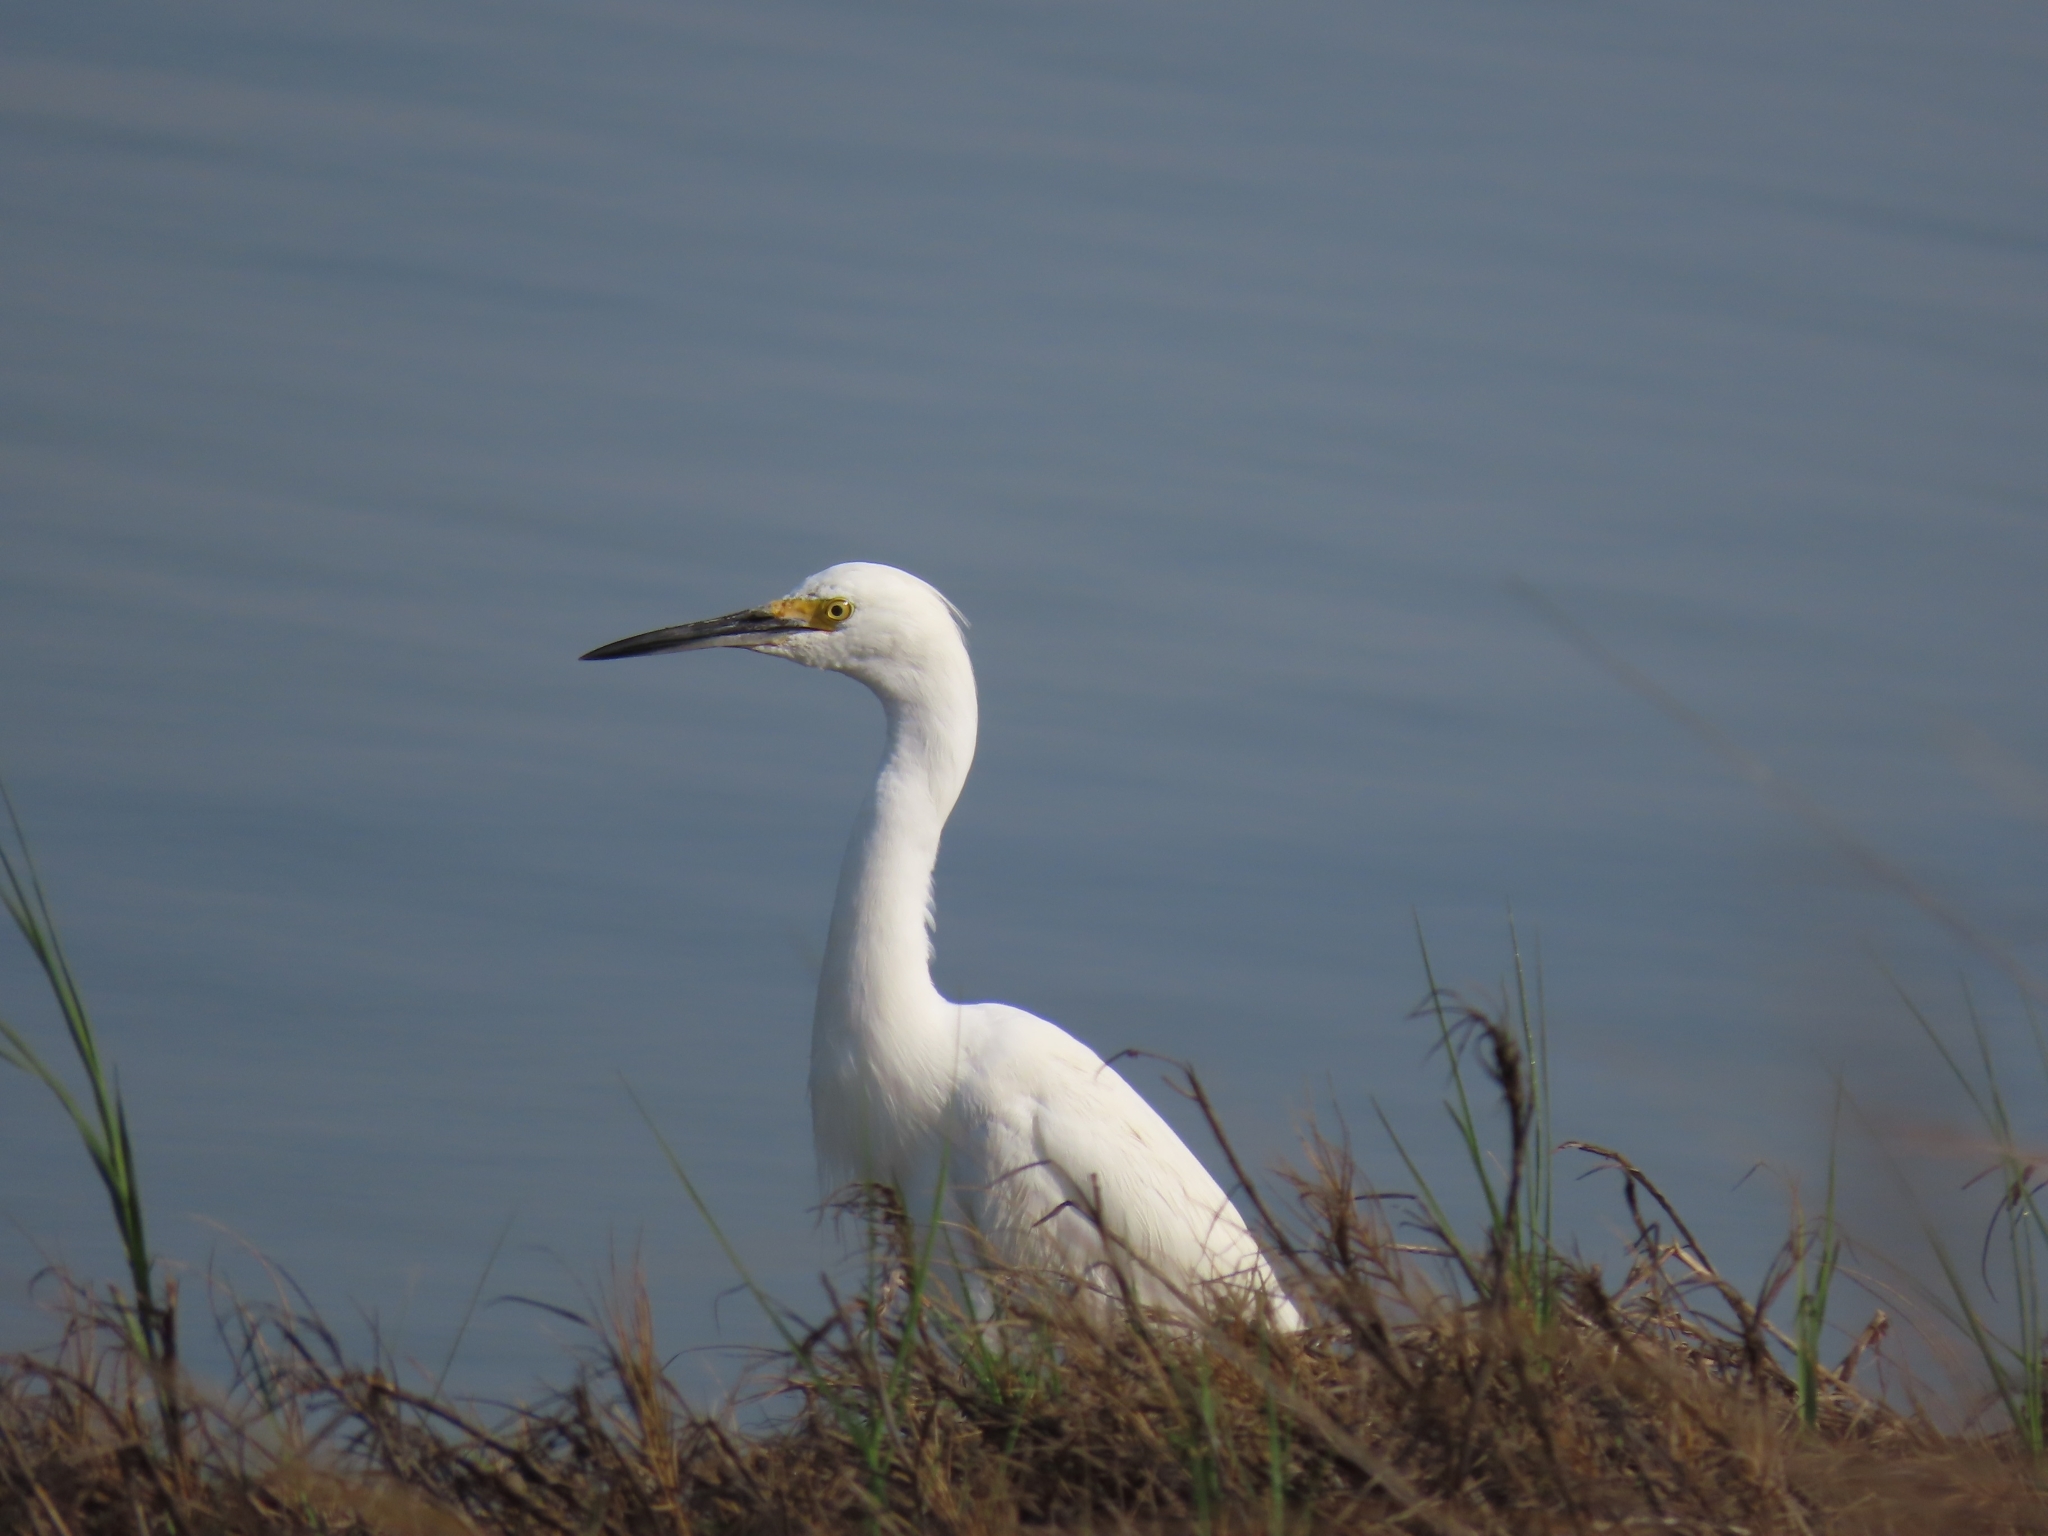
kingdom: Animalia
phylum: Chordata
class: Aves
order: Pelecaniformes
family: Ardeidae
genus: Egretta
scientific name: Egretta thula
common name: Snowy egret
